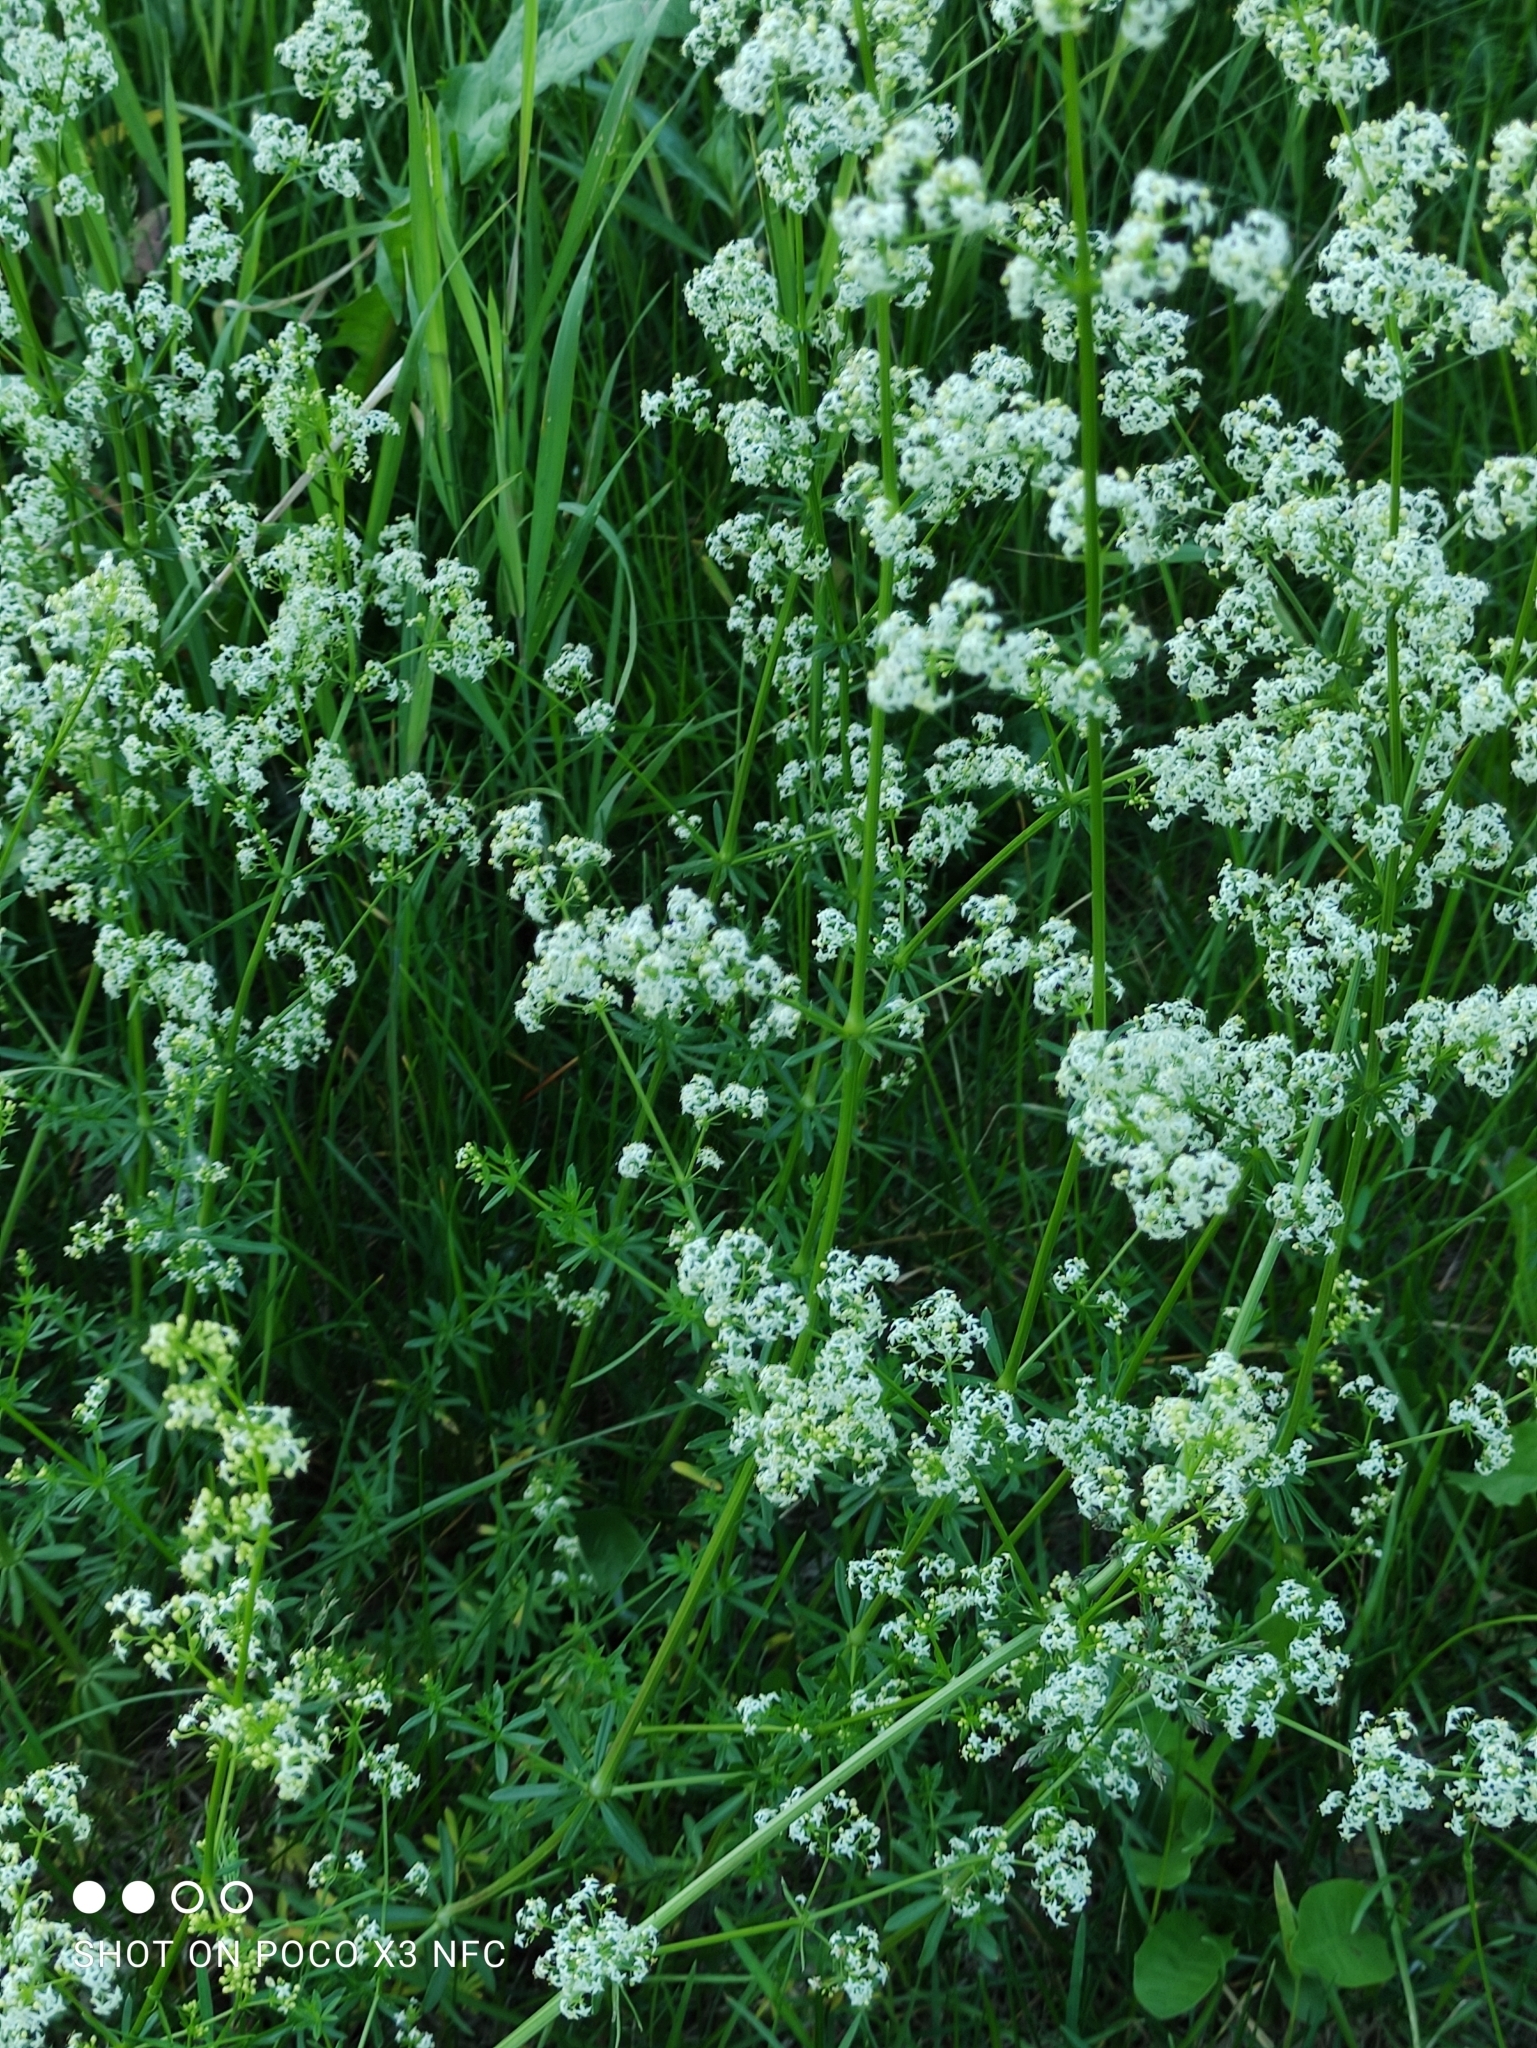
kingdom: Plantae
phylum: Tracheophyta
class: Magnoliopsida
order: Gentianales
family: Rubiaceae
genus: Galium
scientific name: Galium mollugo
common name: Hedge bedstraw
